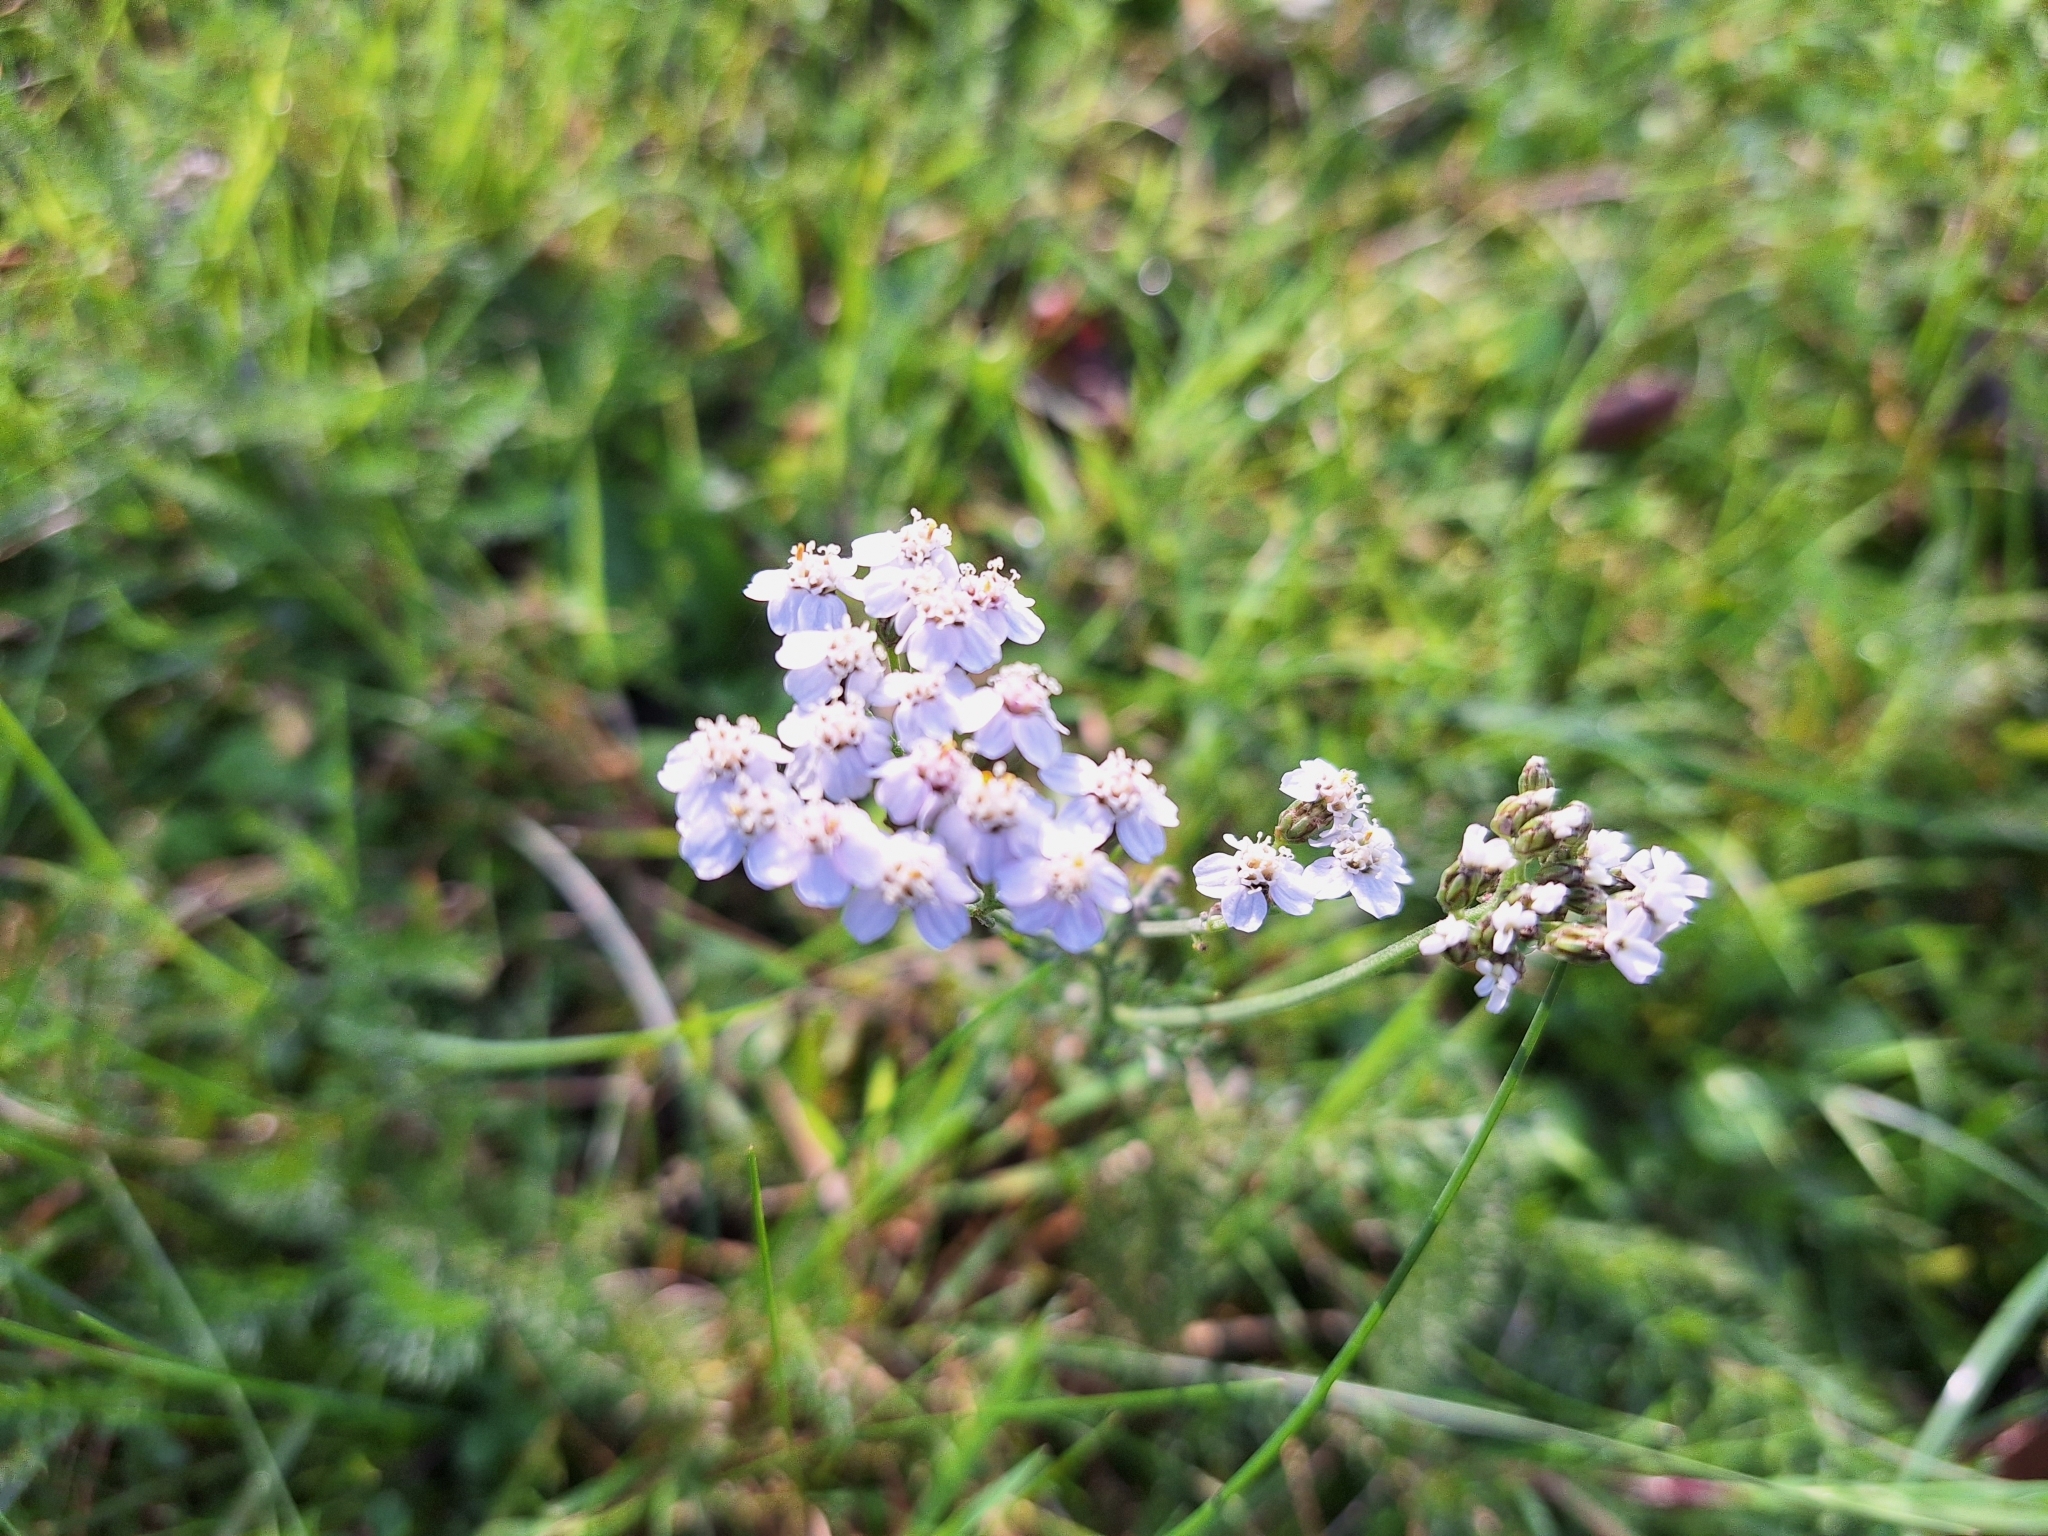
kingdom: Plantae
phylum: Tracheophyta
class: Magnoliopsida
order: Asterales
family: Asteraceae
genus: Achillea
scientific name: Achillea millefolium
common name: Yarrow
